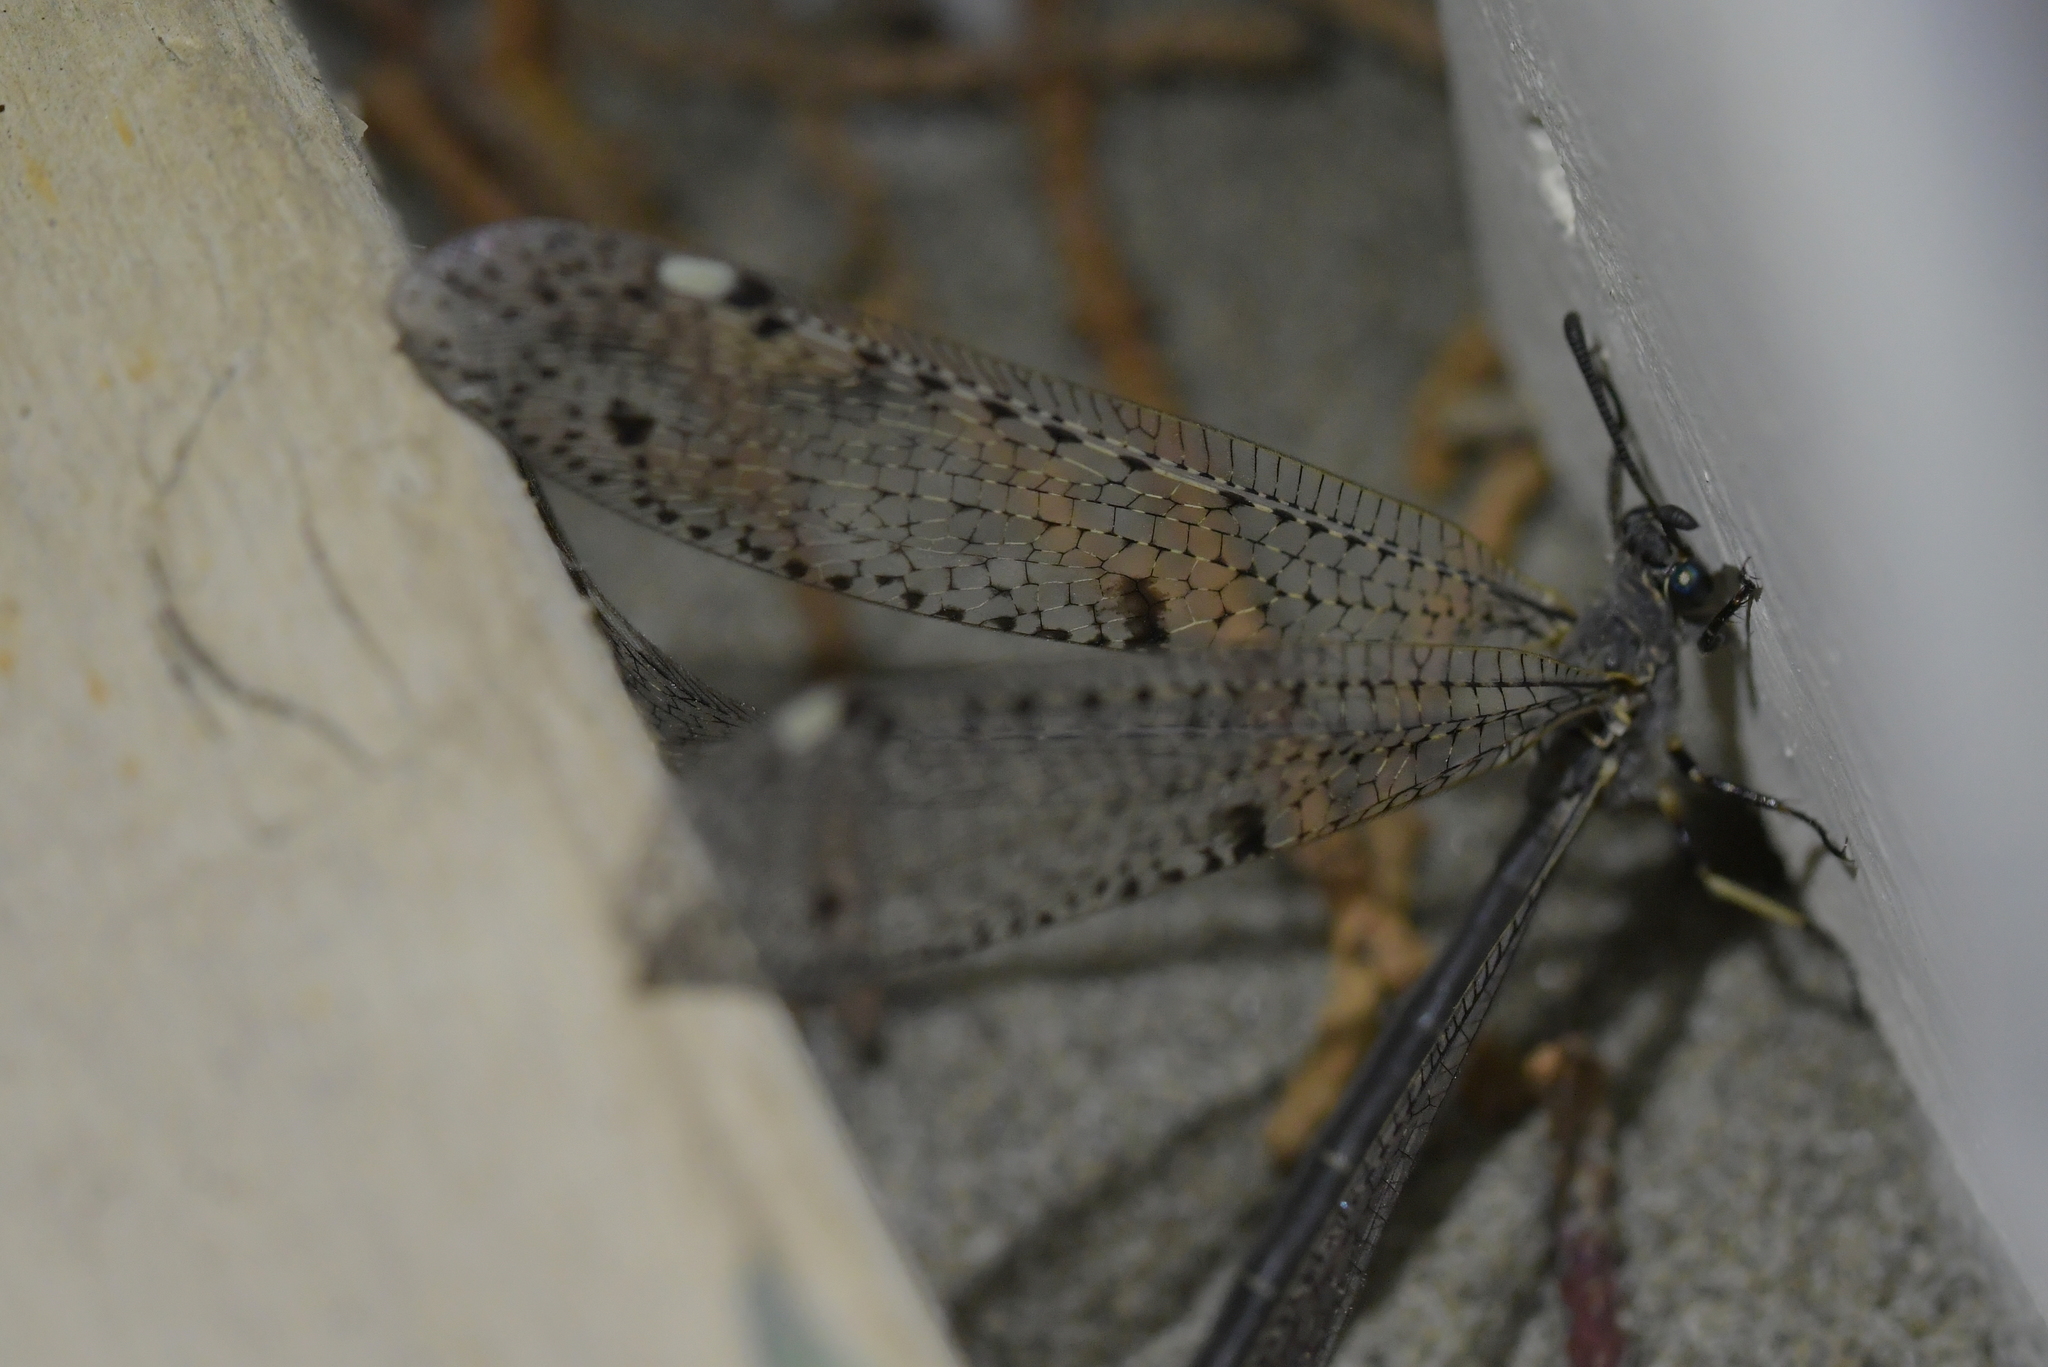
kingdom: Animalia
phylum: Arthropoda
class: Insecta
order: Neuroptera
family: Myrmeleontidae
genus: Weeleus
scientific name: Weeleus acutus
